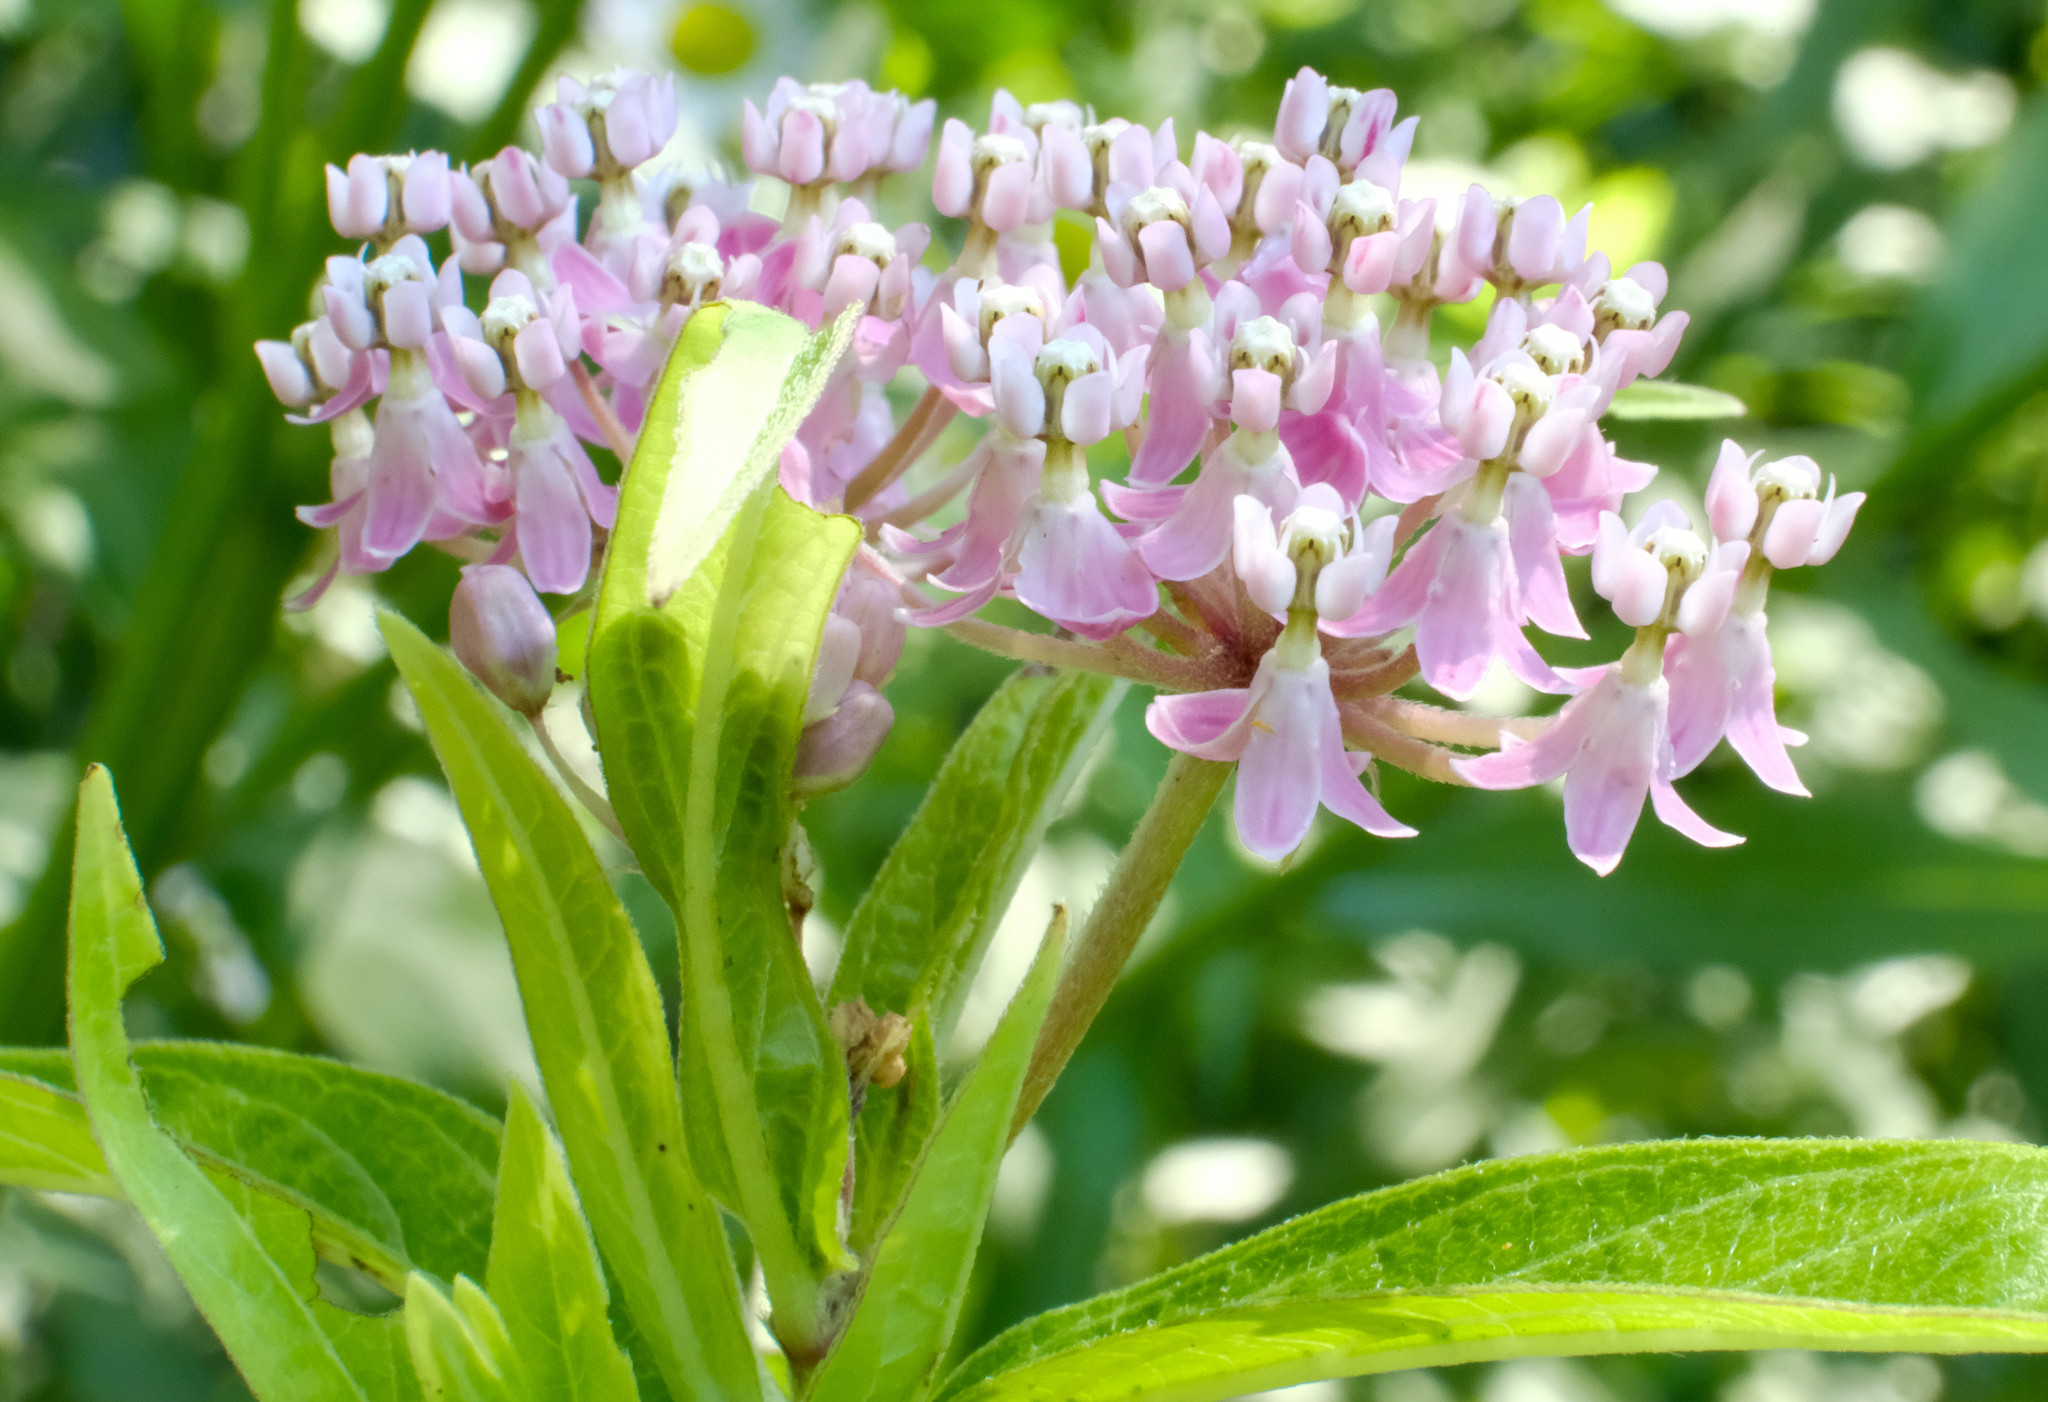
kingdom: Plantae
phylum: Tracheophyta
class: Magnoliopsida
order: Gentianales
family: Apocynaceae
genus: Asclepias
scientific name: Asclepias incarnata
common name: Swamp milkweed
